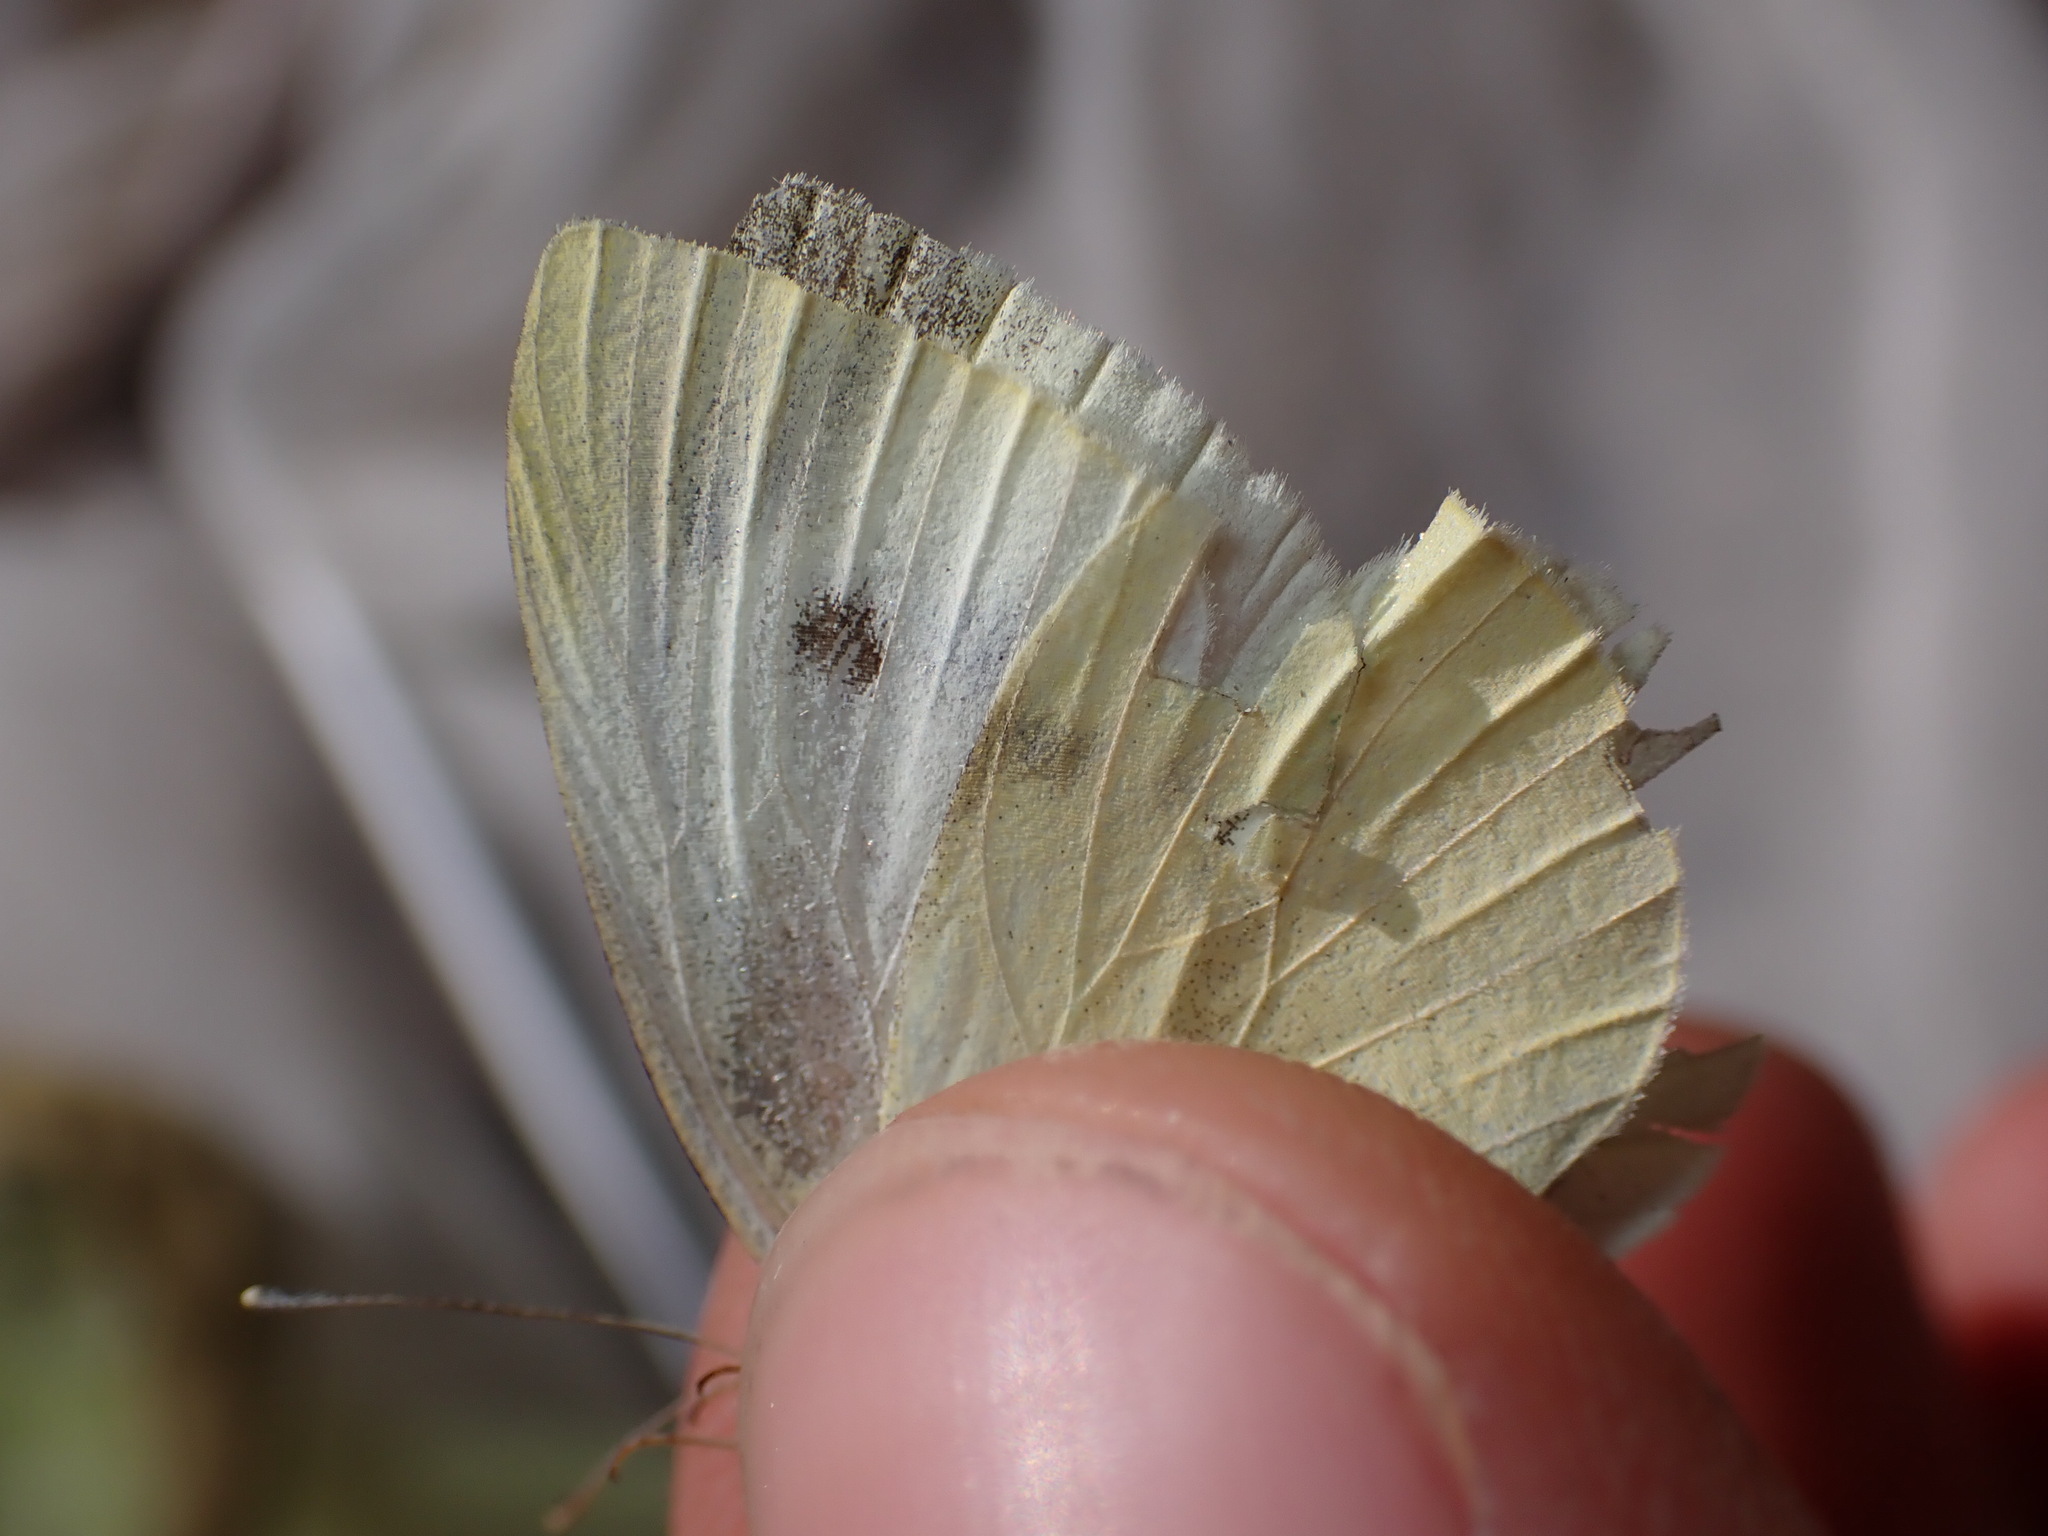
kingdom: Animalia
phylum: Arthropoda
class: Insecta
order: Lepidoptera
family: Pieridae
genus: Pieris
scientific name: Pieris rapae
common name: Small white
